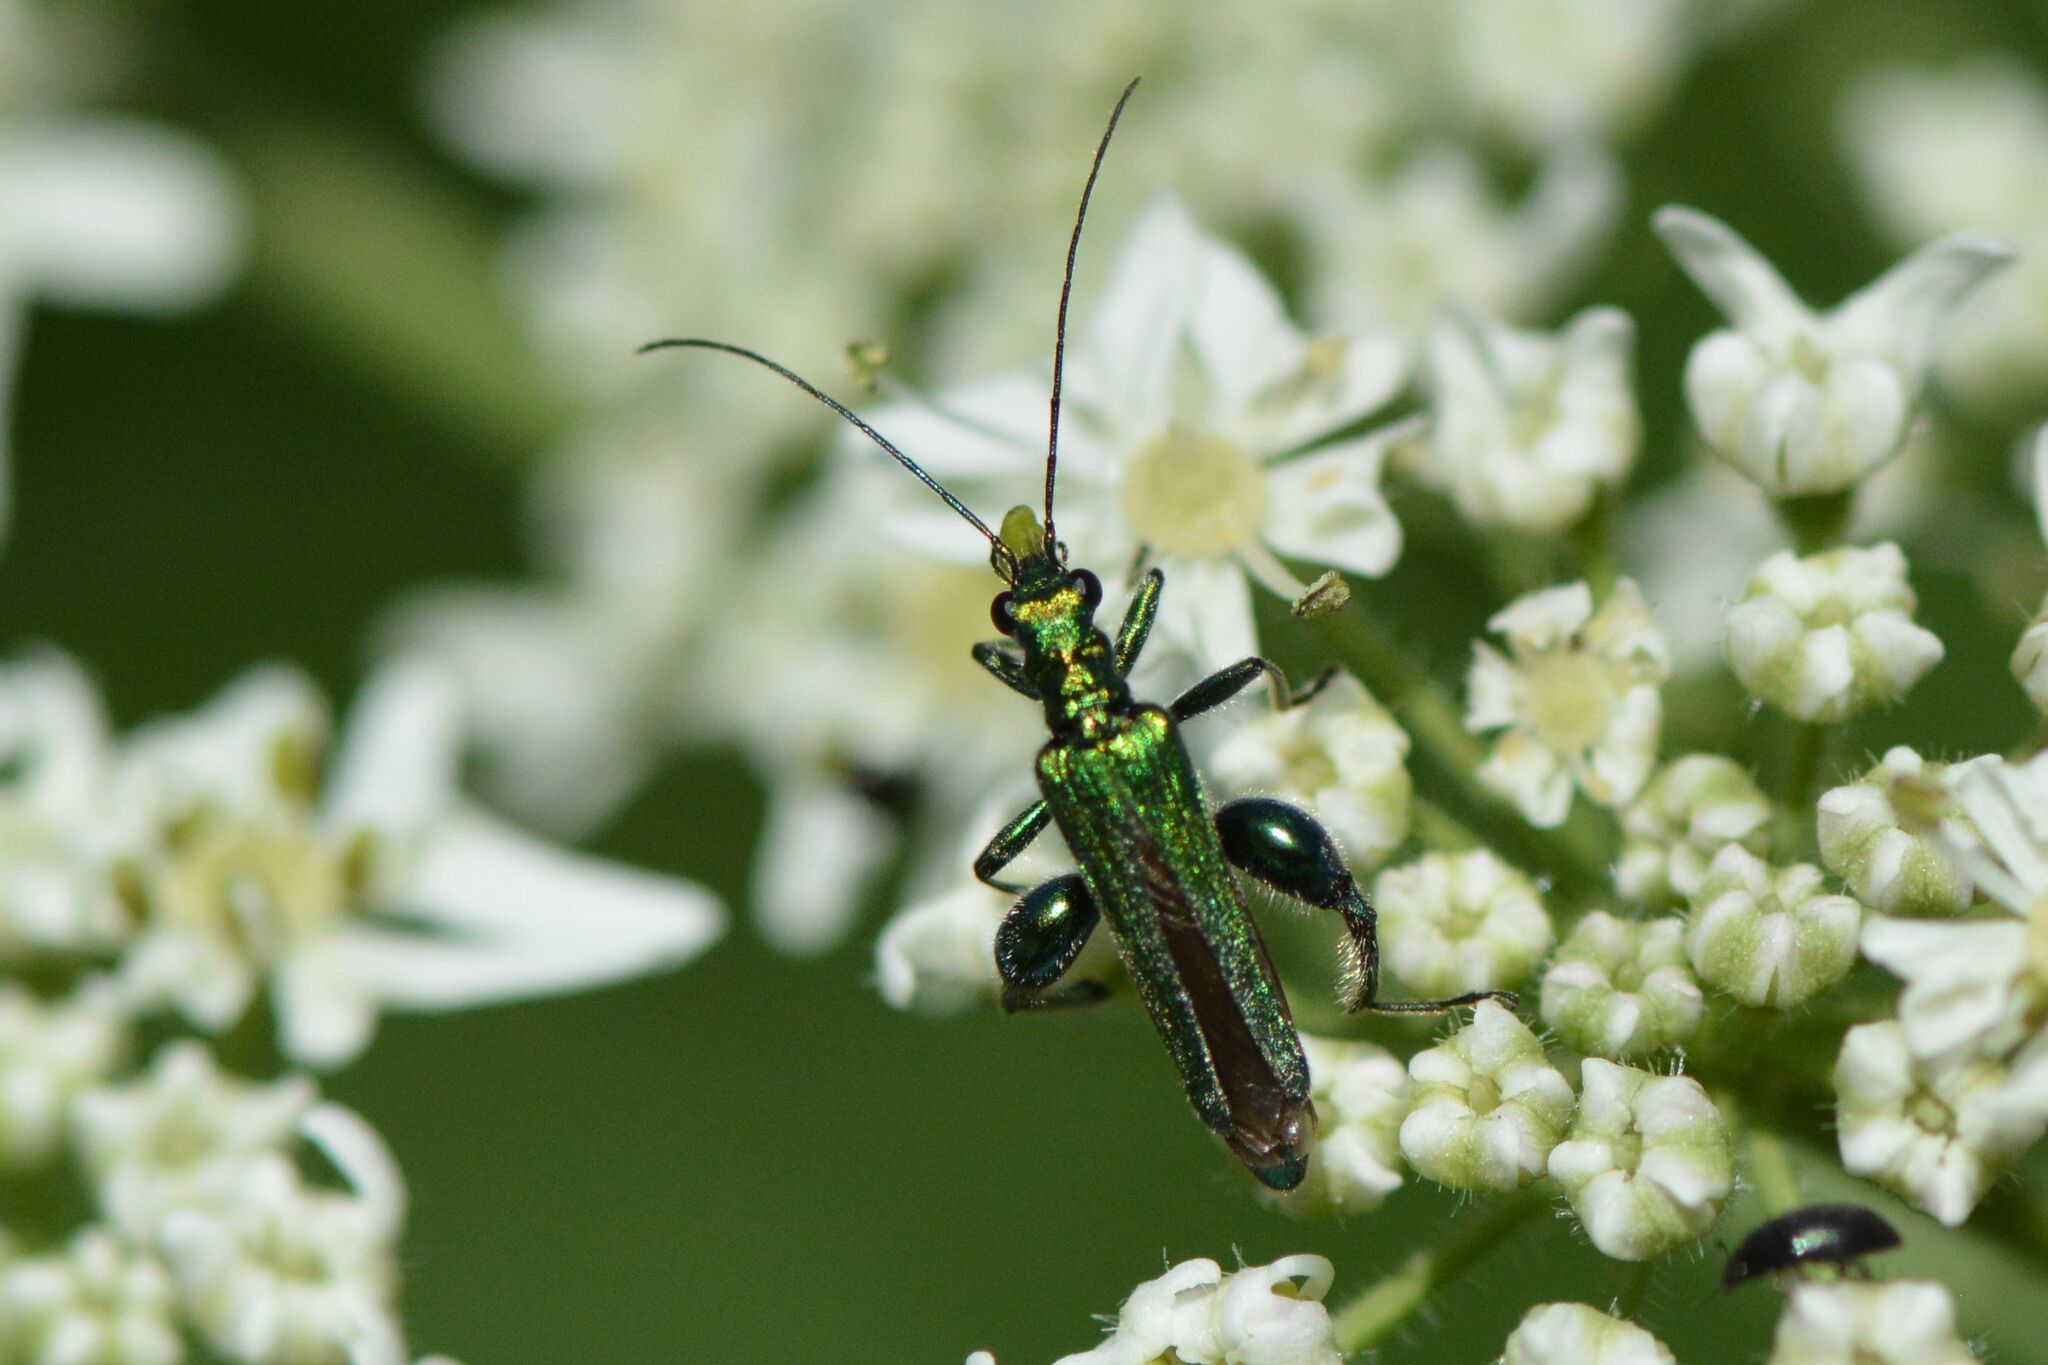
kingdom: Animalia
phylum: Arthropoda
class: Insecta
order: Coleoptera
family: Oedemeridae
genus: Oedemera
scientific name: Oedemera nobilis
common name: Swollen-thighed beetle
